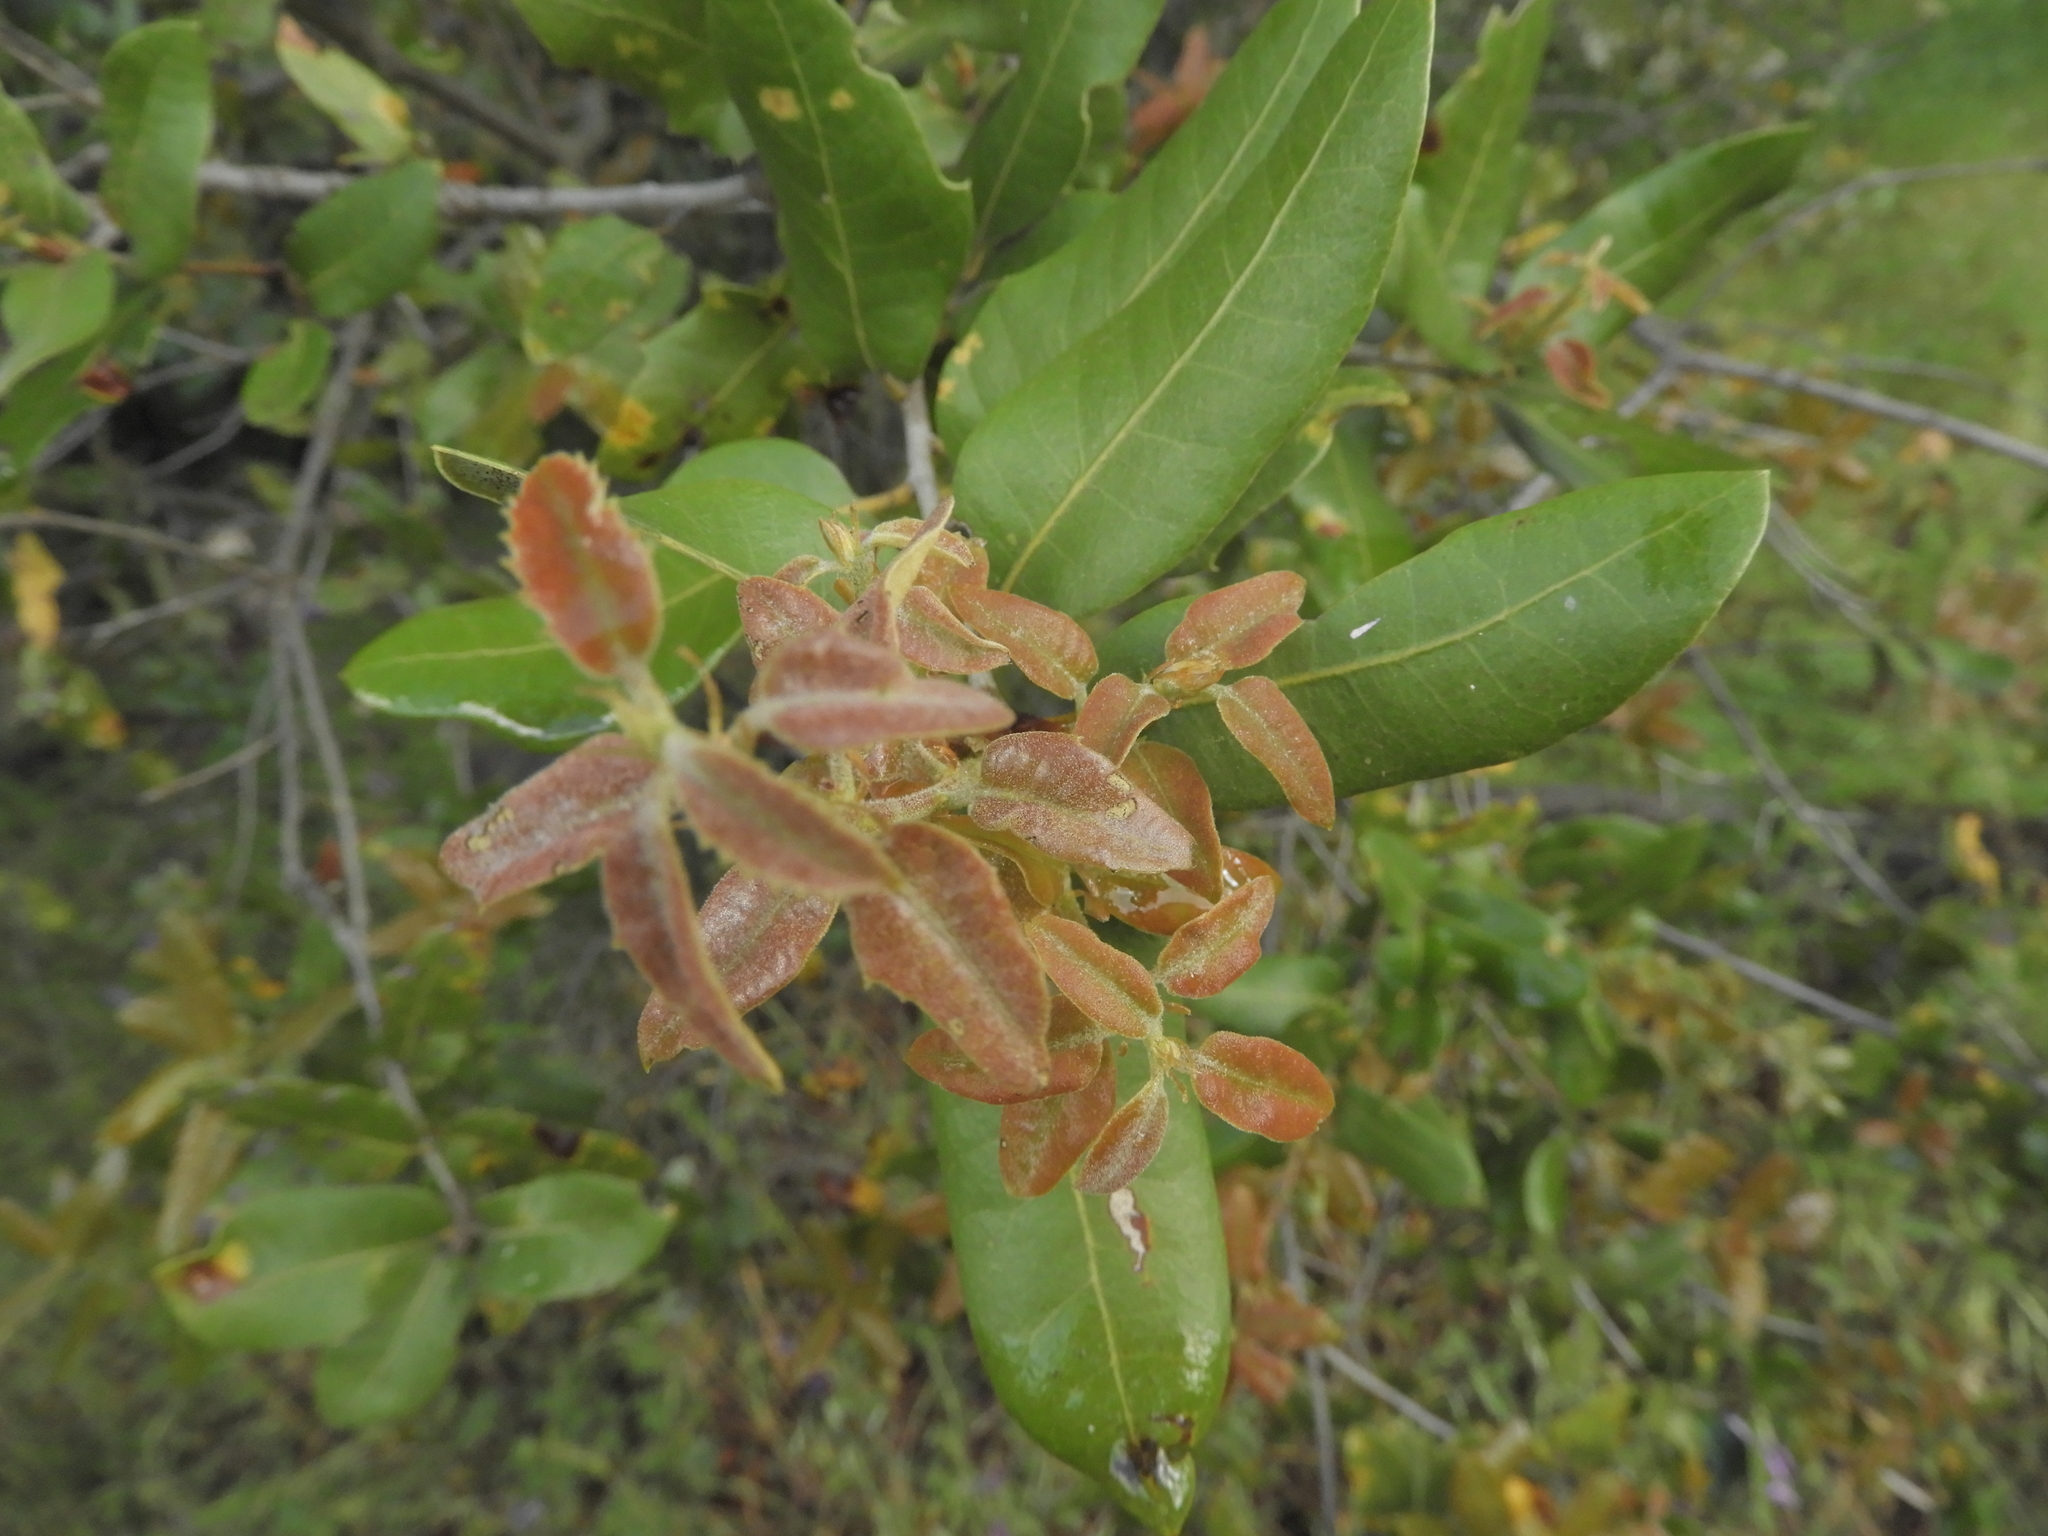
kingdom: Plantae
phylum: Tracheophyta
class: Magnoliopsida
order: Fagales
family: Fagaceae
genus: Quercus
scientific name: Quercus chrysolepis
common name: Canyon live oak
